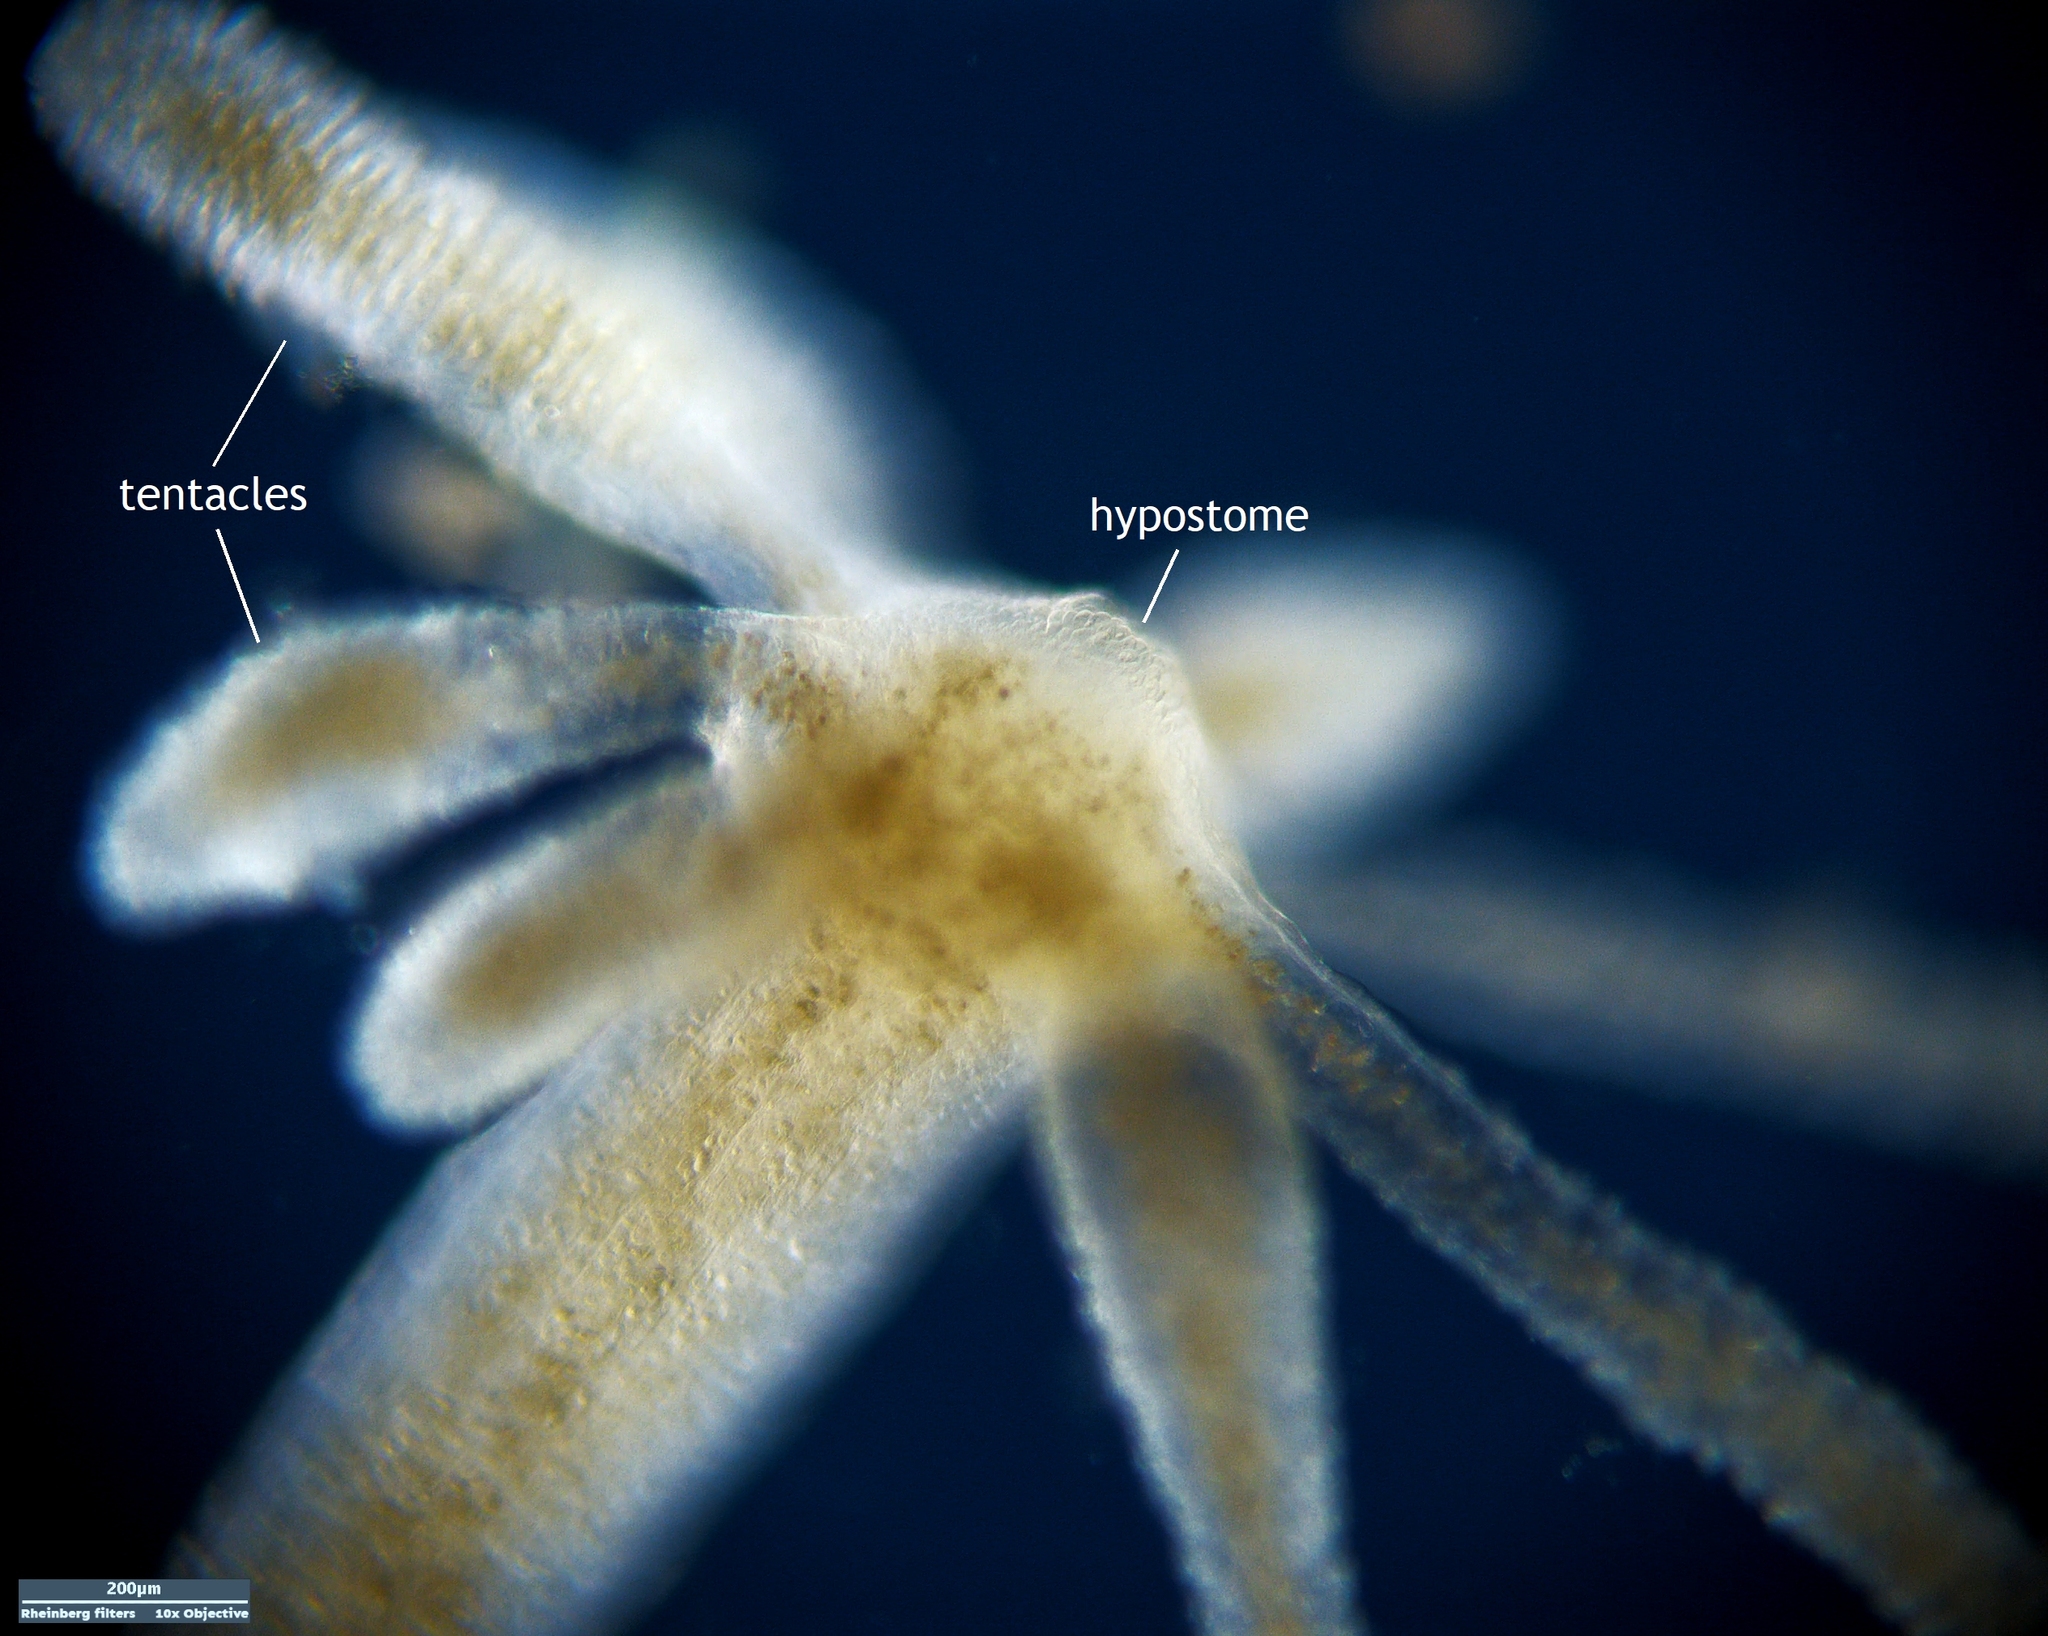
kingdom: Animalia
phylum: Cnidaria
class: Hydrozoa
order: Anthoathecata
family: Hydridae
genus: Hydra
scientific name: Hydra oxycnida
